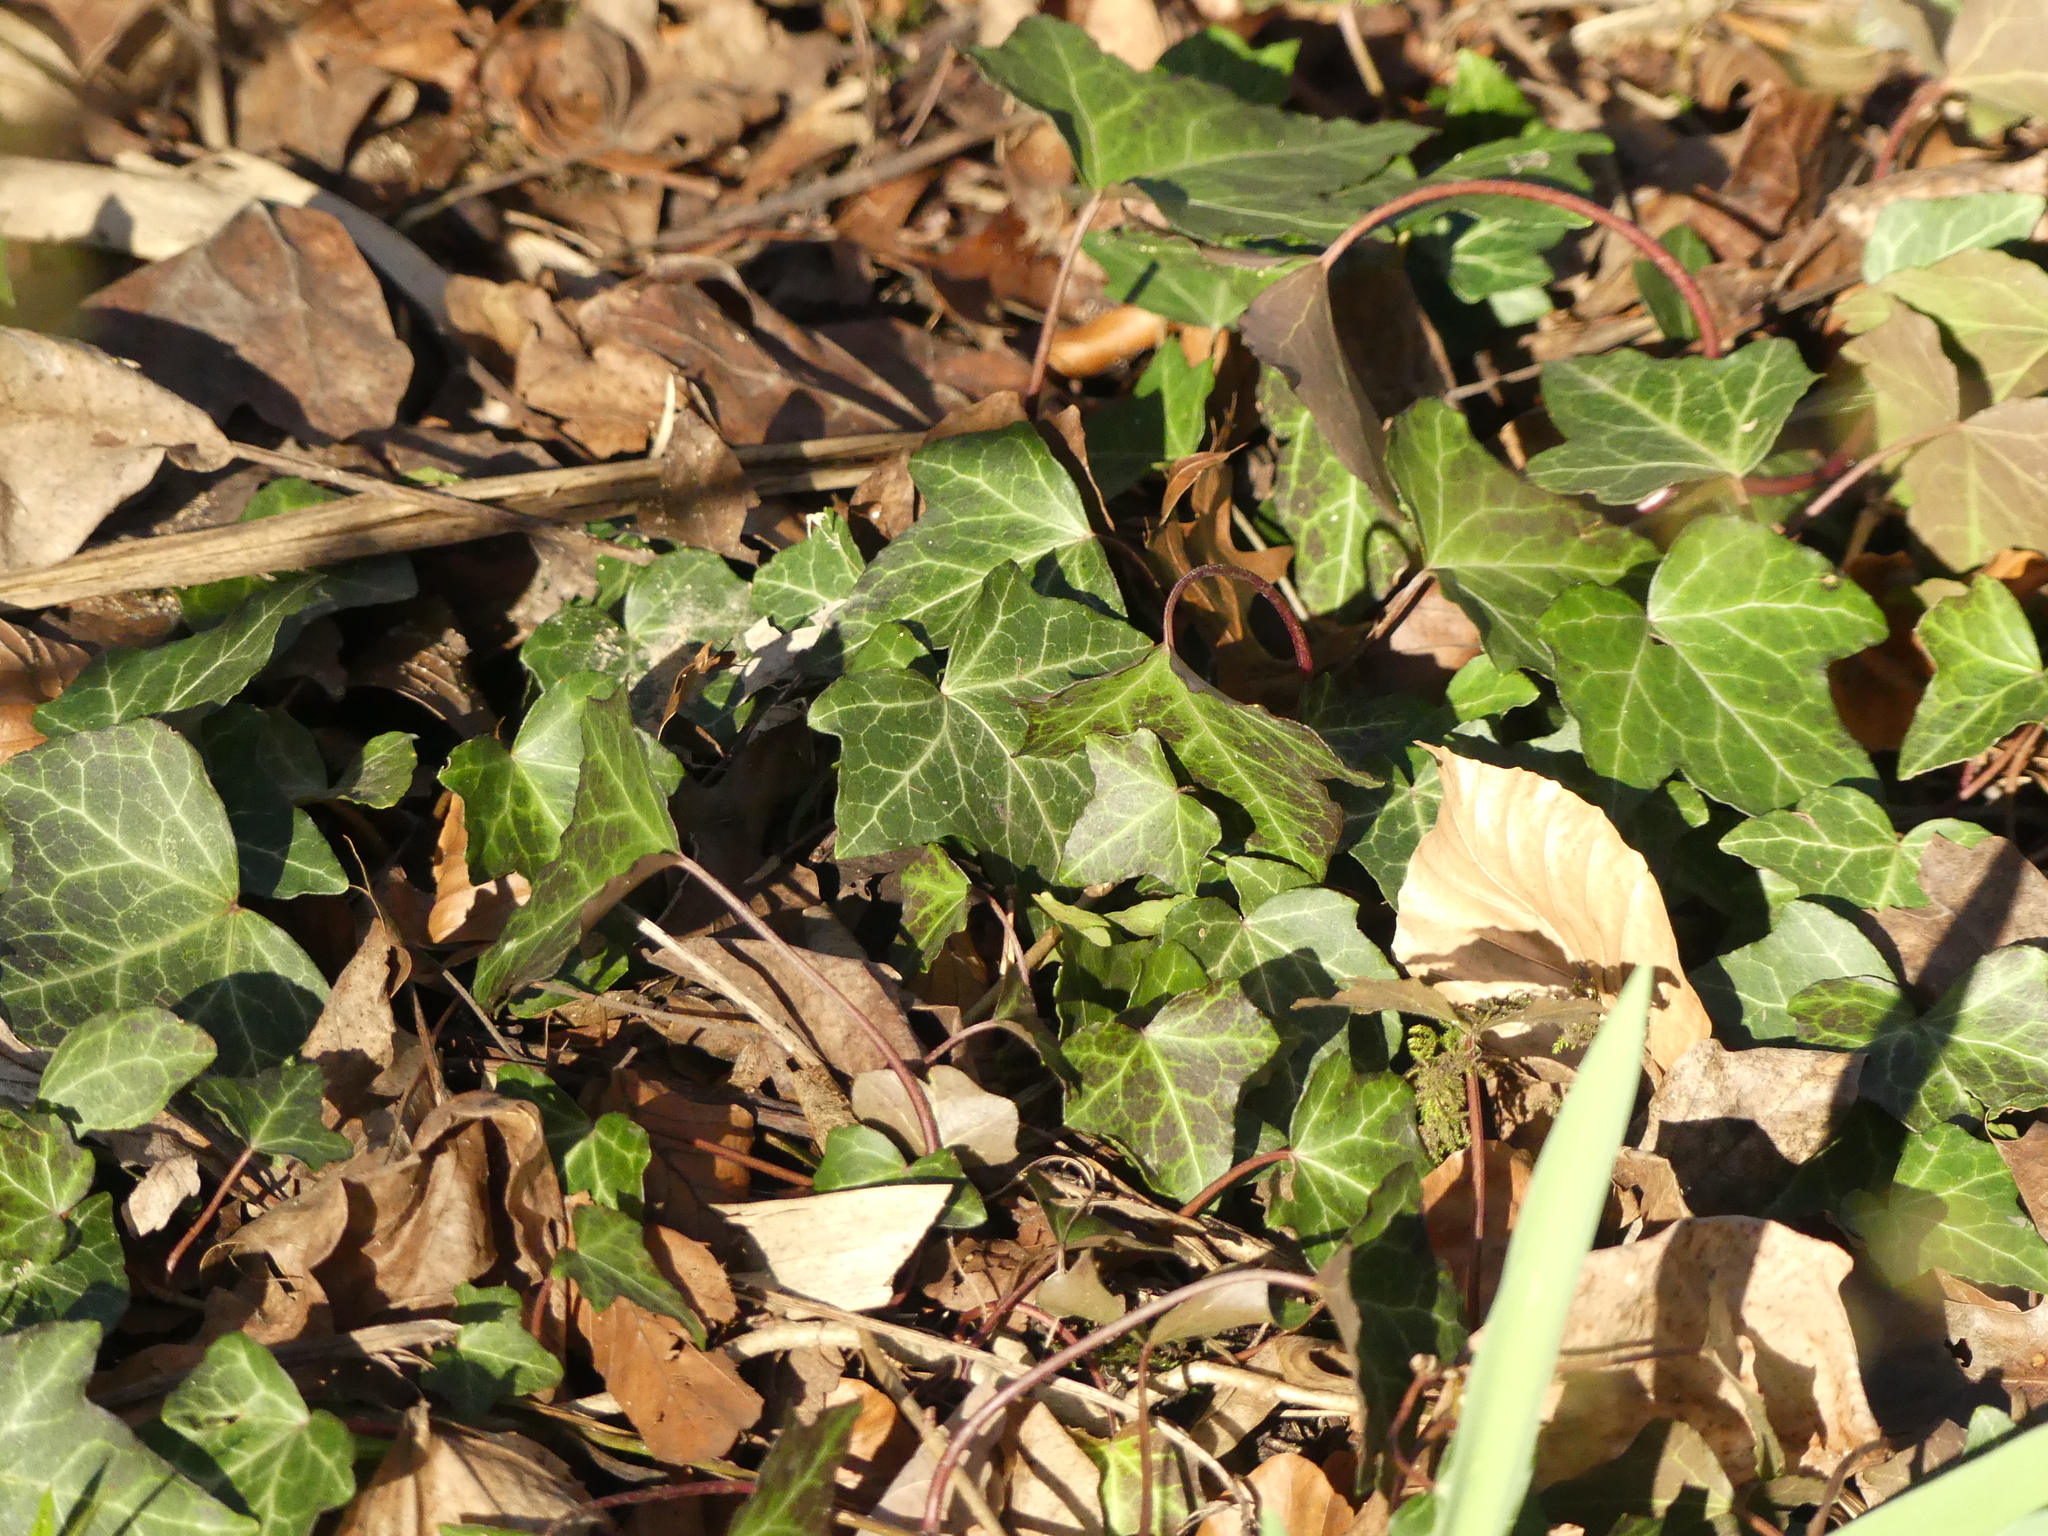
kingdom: Plantae
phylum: Tracheophyta
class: Magnoliopsida
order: Apiales
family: Araliaceae
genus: Hedera
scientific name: Hedera helix
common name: Ivy
